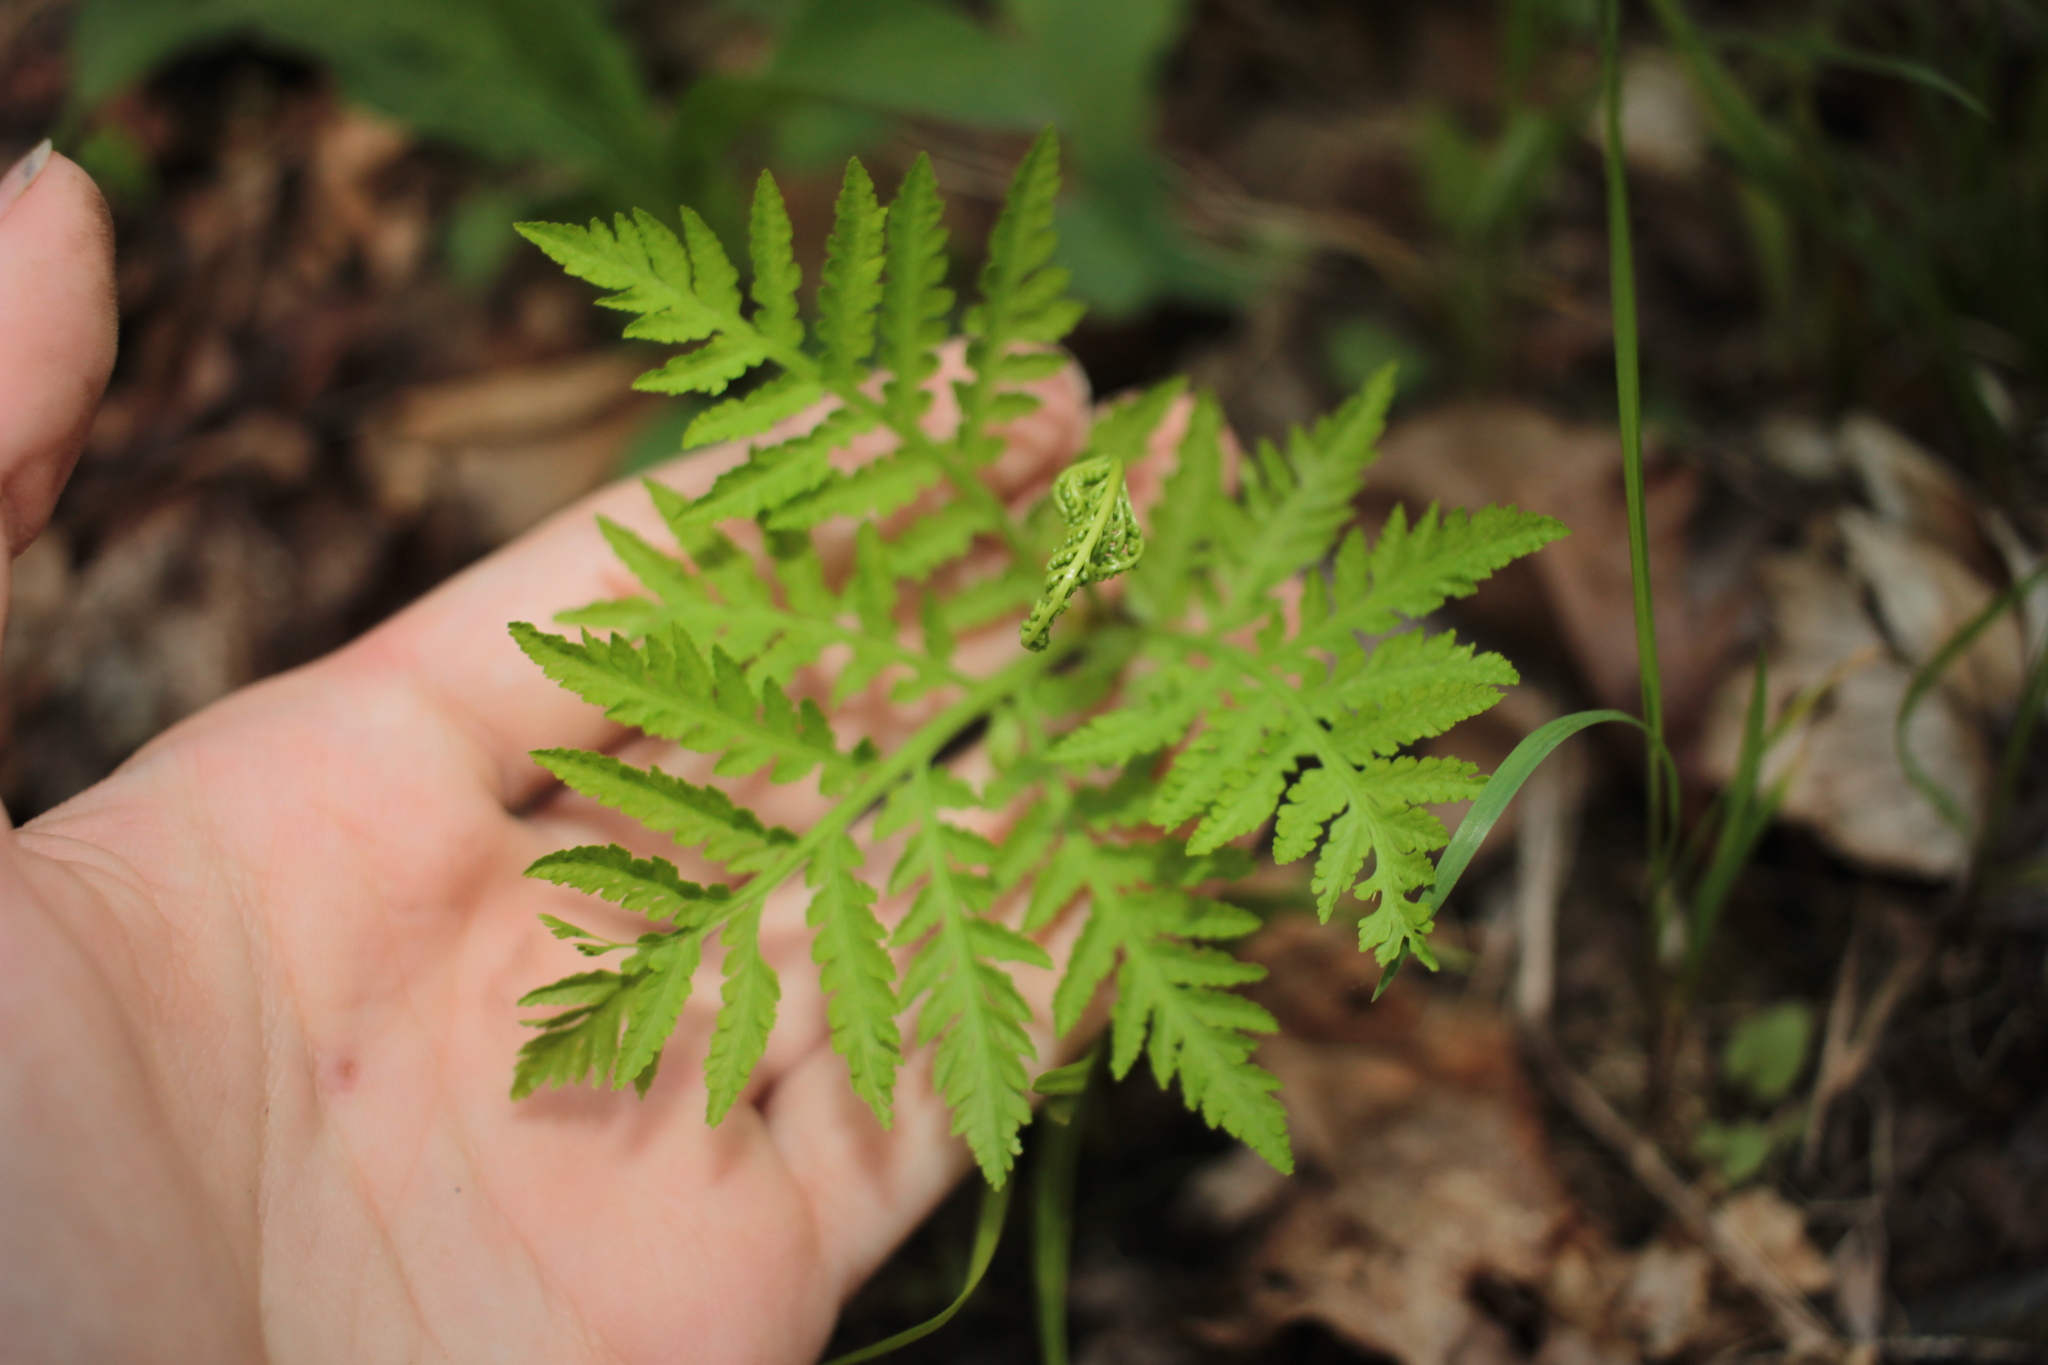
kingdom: Plantae
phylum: Tracheophyta
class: Polypodiopsida
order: Ophioglossales
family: Ophioglossaceae
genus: Botrypus
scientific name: Botrypus virginianus
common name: Common grapefern
